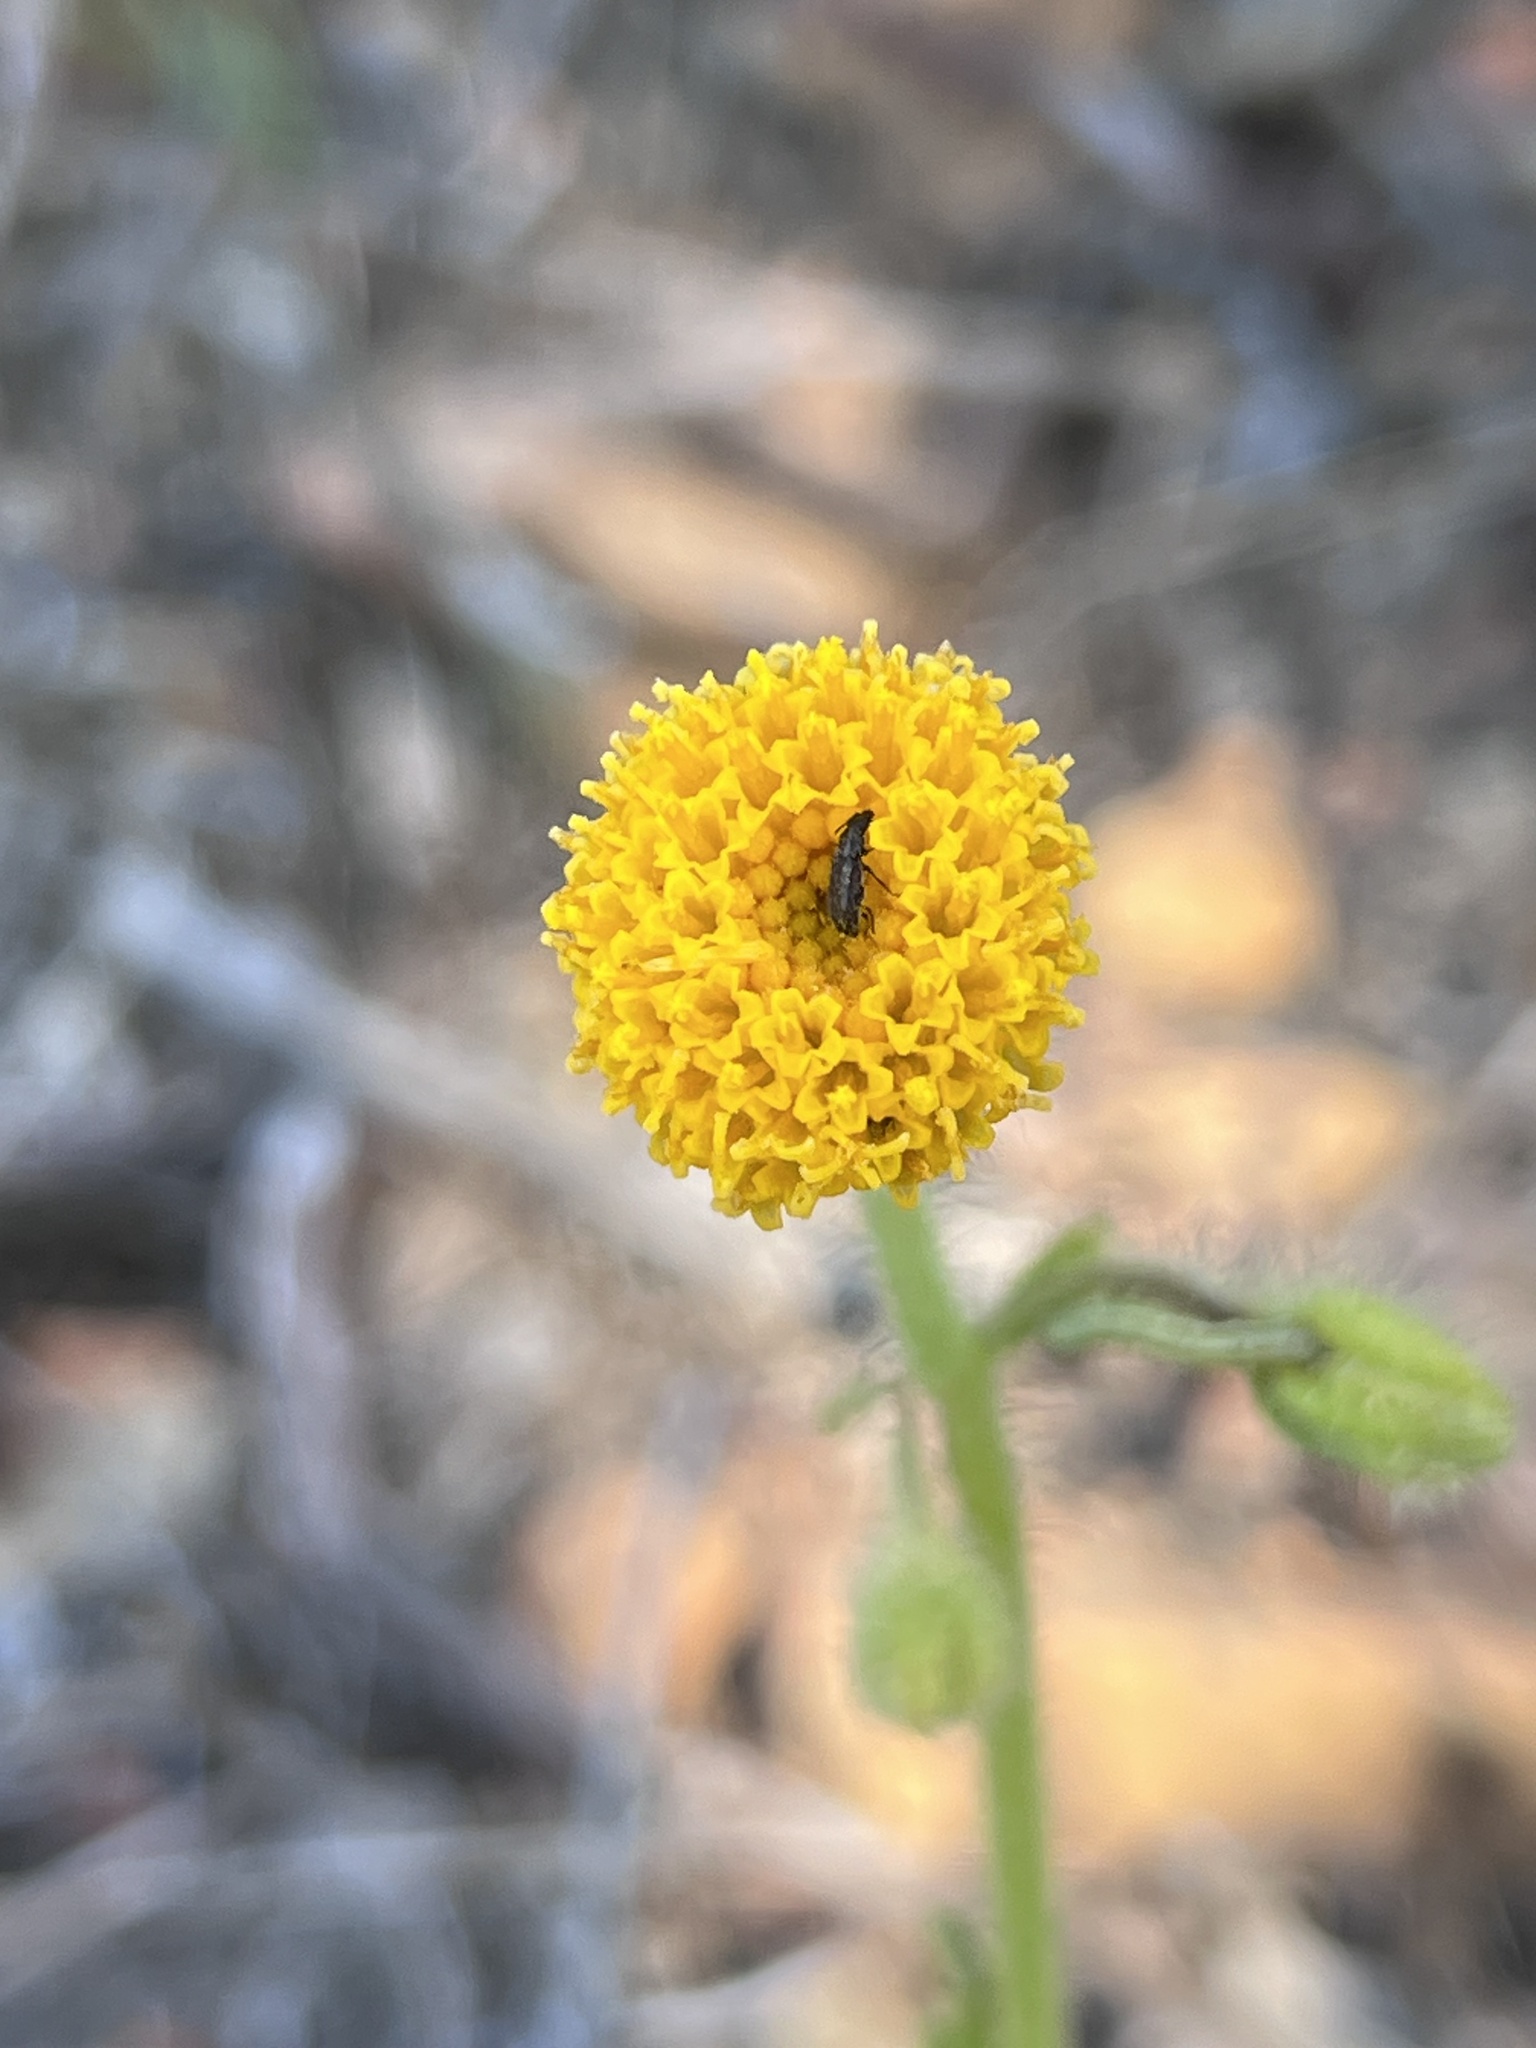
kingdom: Plantae
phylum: Tracheophyta
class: Magnoliopsida
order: Asterales
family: Asteraceae
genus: Arnica
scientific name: Arnica discoidea
